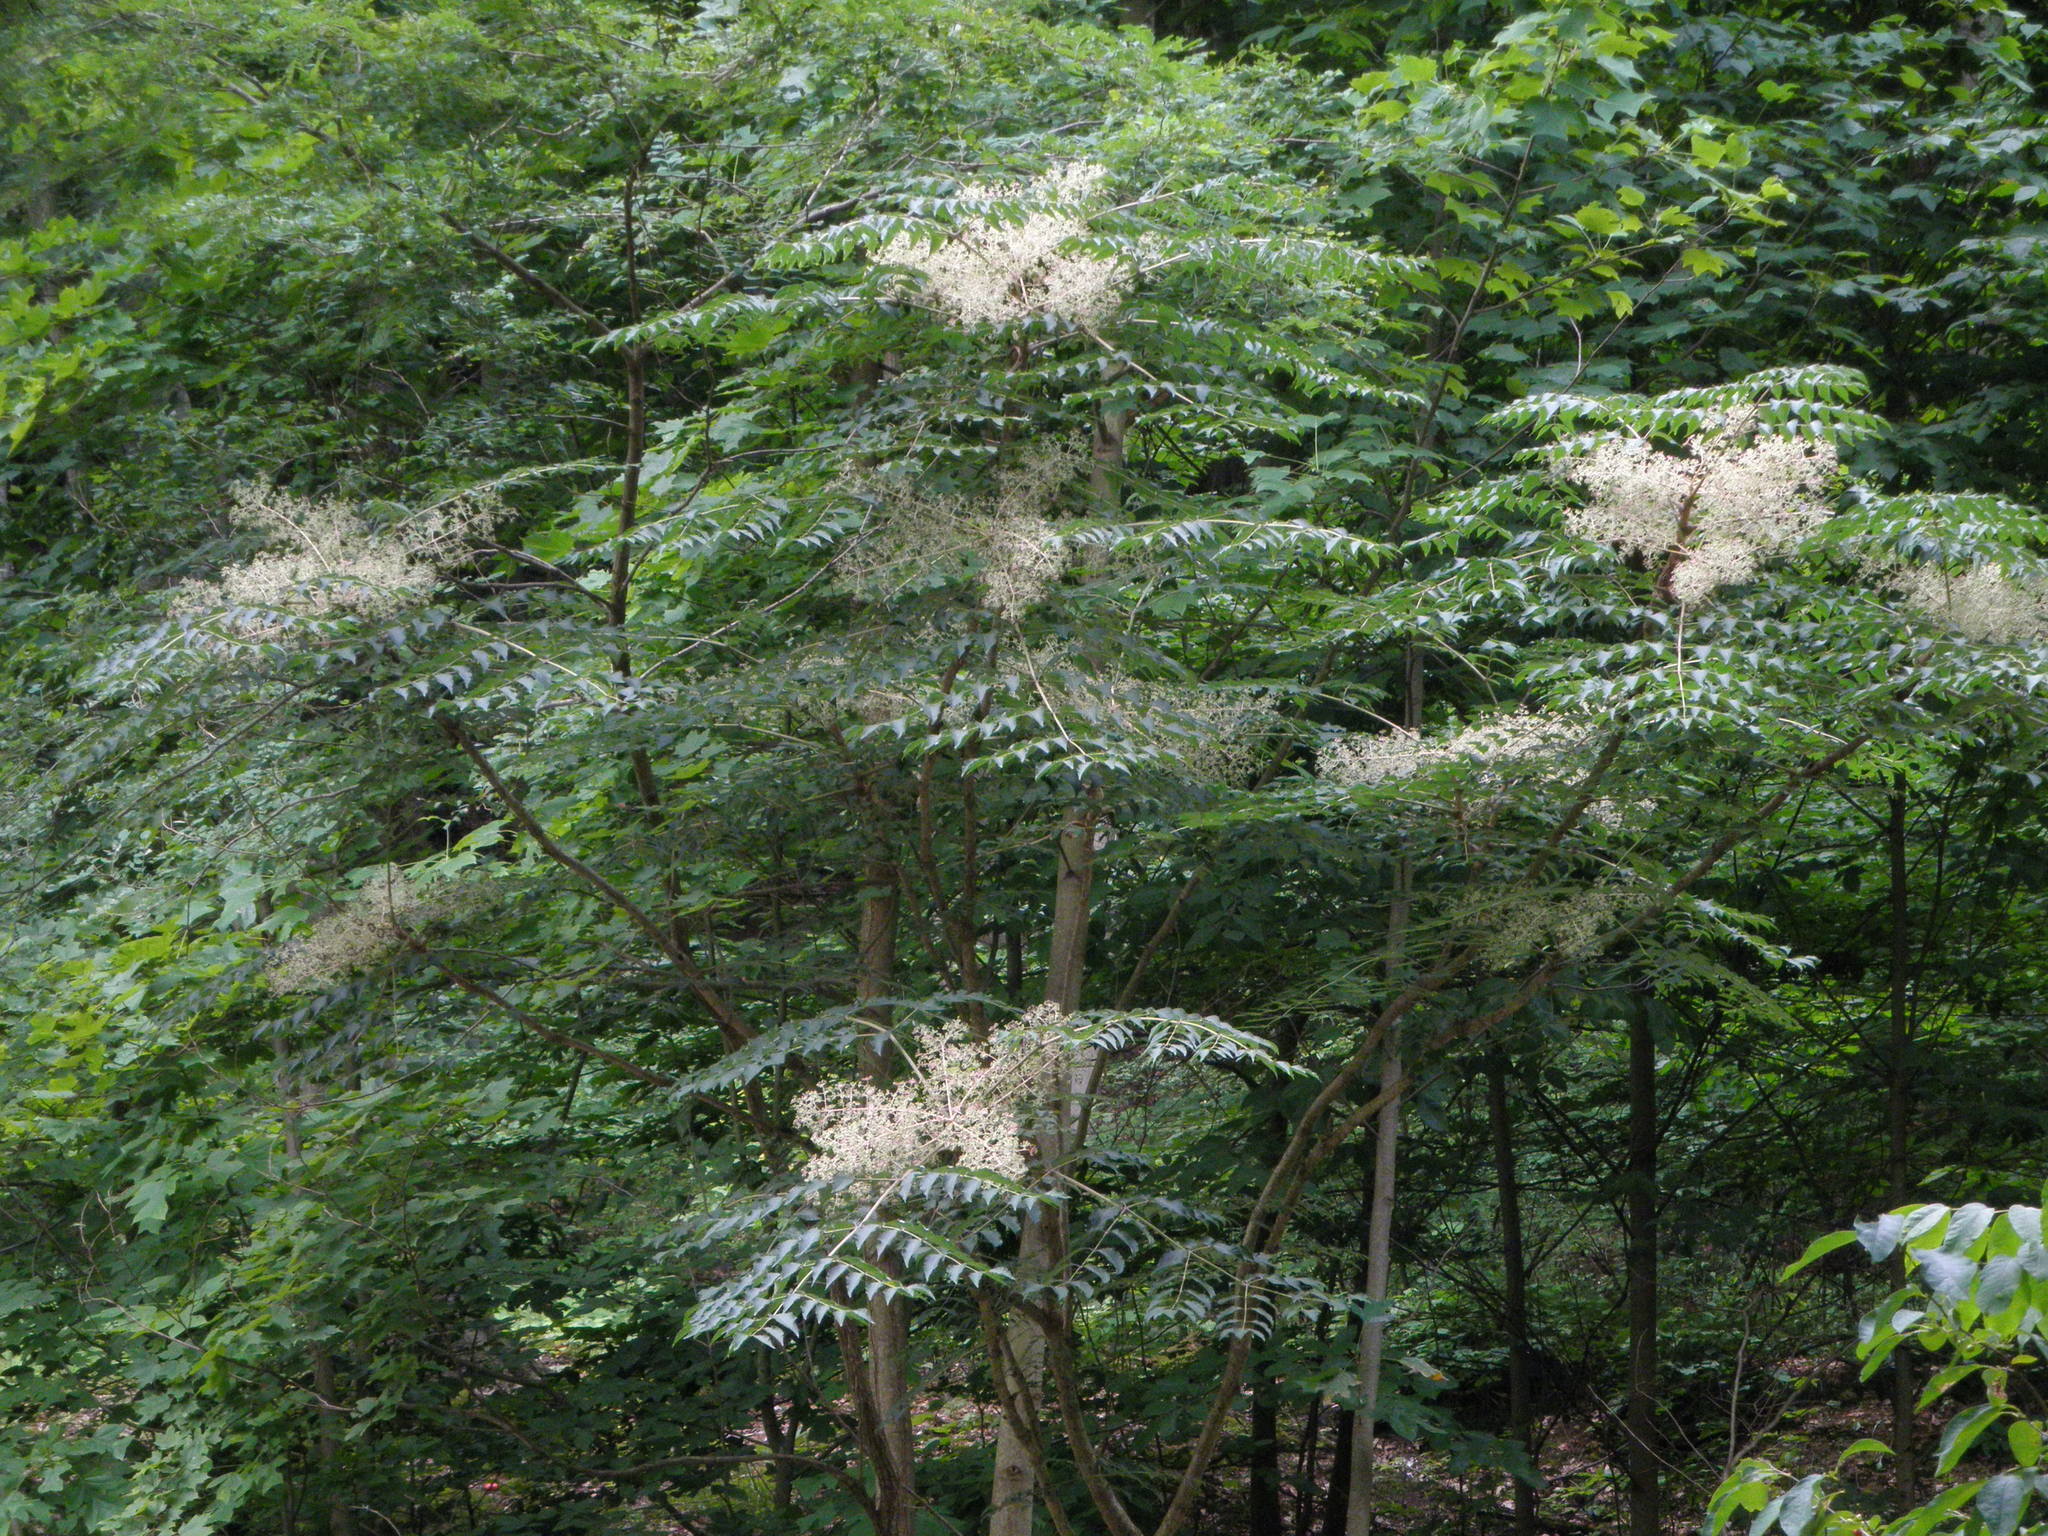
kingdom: Plantae
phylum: Tracheophyta
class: Magnoliopsida
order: Apiales
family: Araliaceae
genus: Aralia
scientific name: Aralia elata
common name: Japanese angelica-tree
